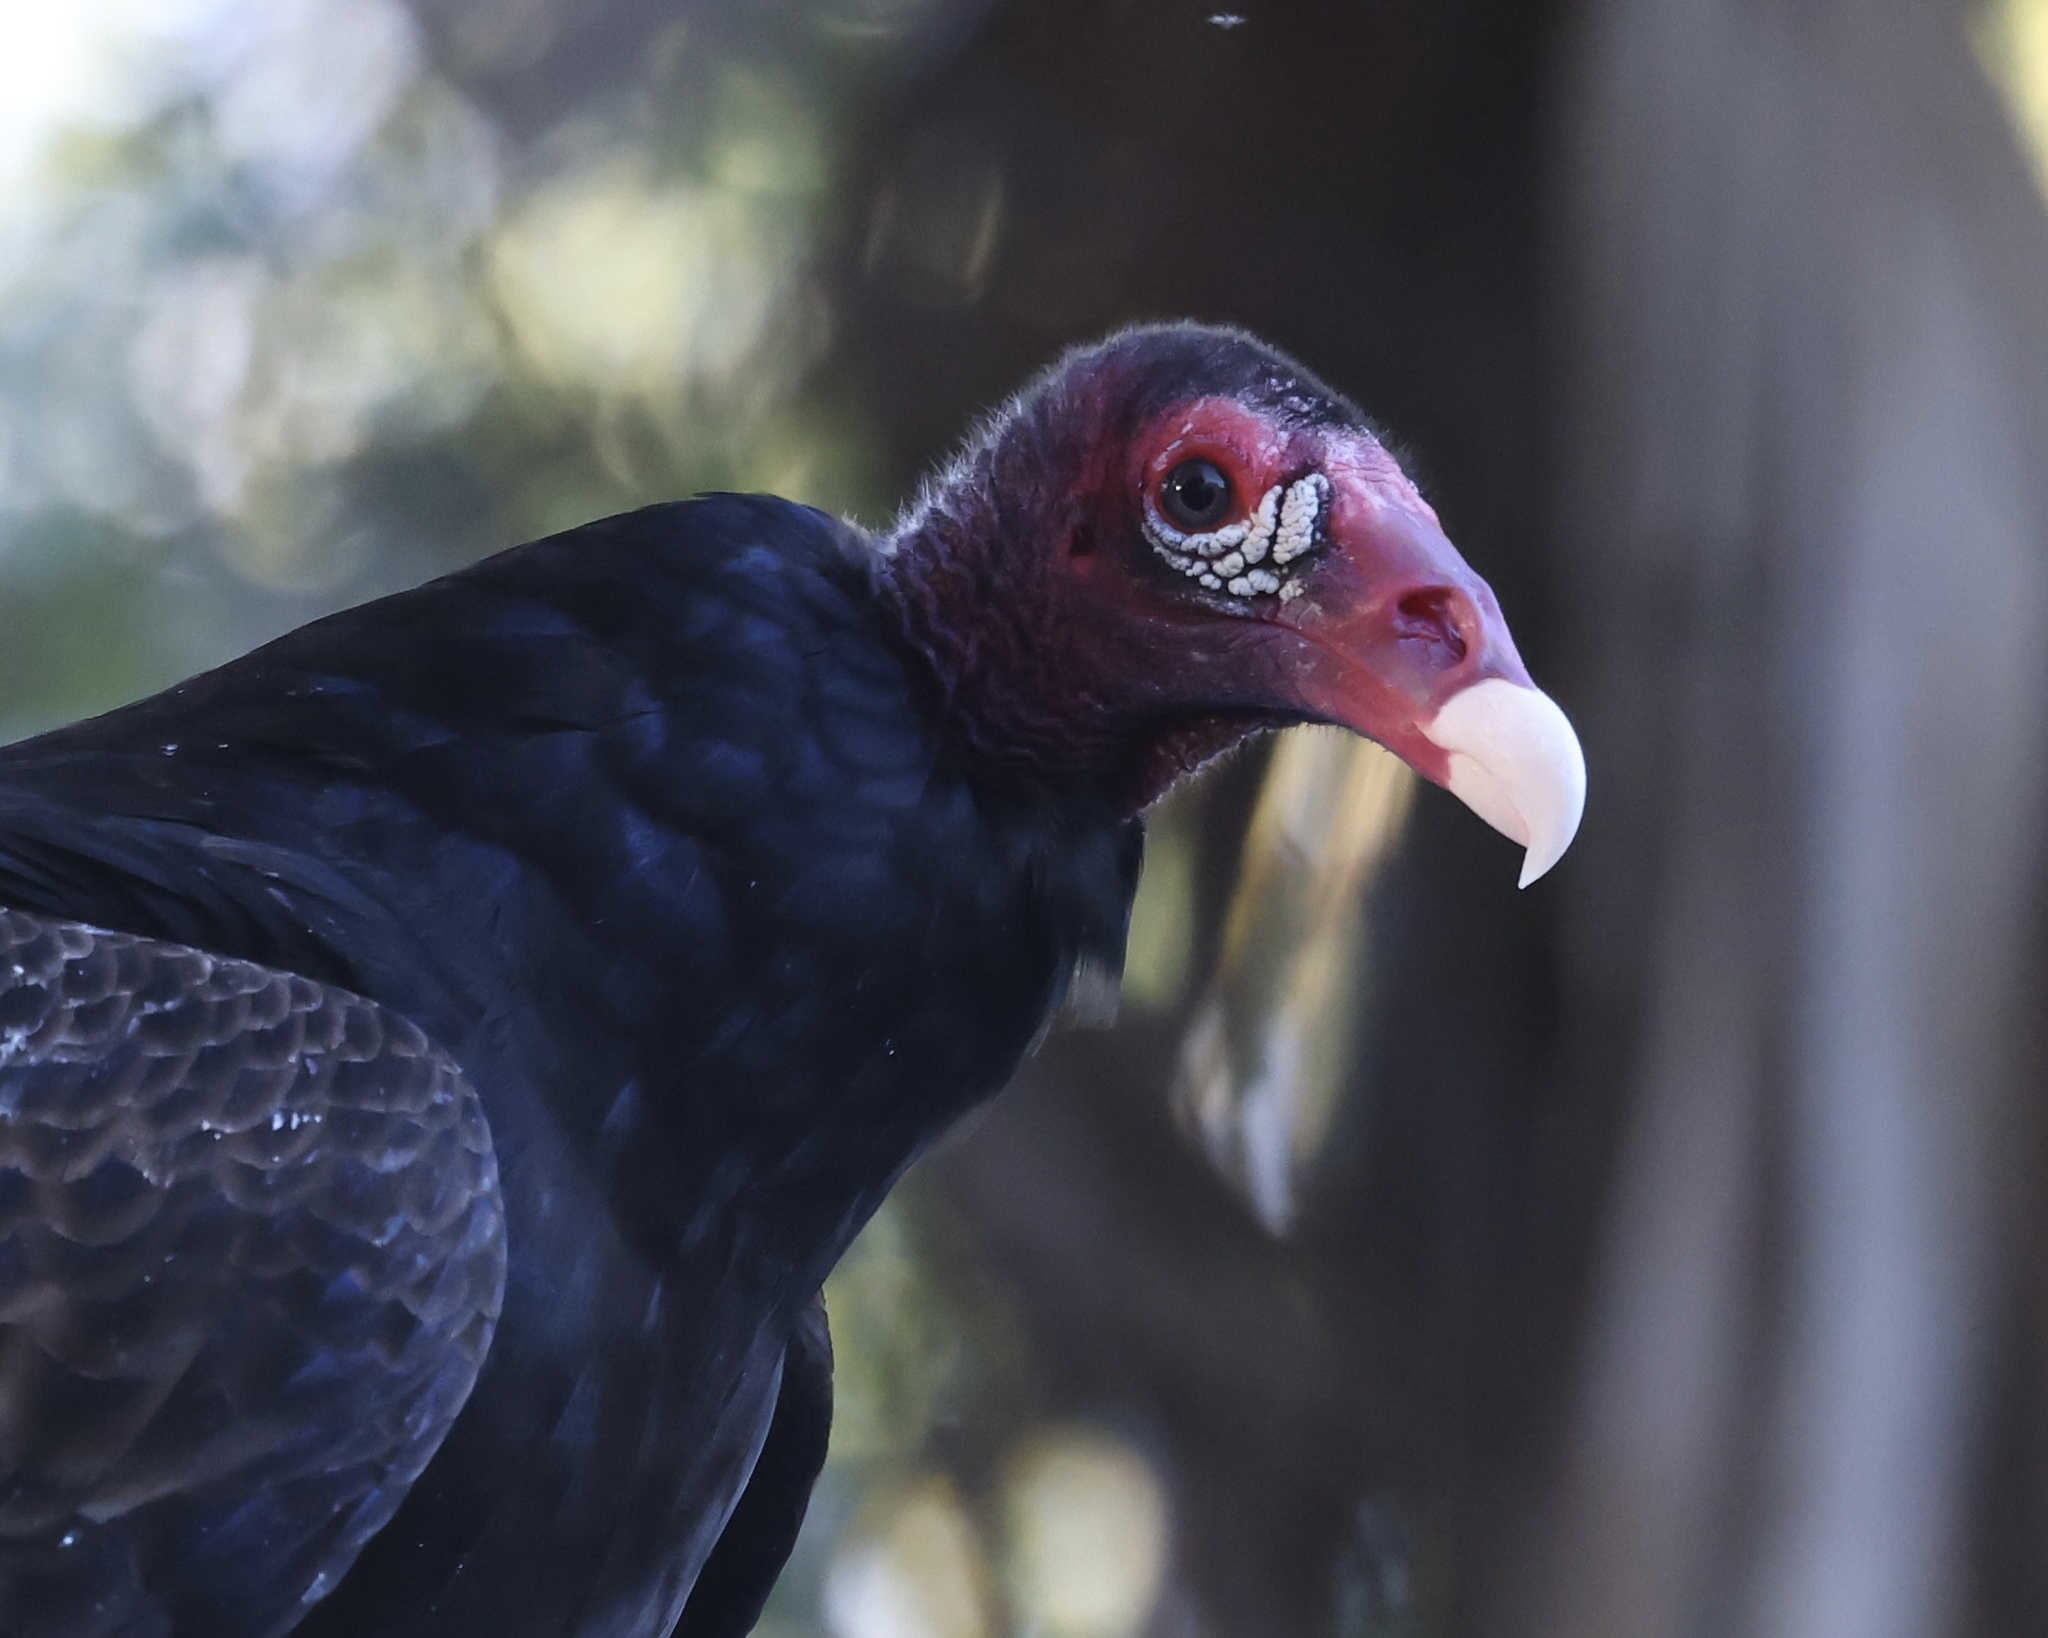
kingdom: Animalia
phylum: Chordata
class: Aves
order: Accipitriformes
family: Cathartidae
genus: Cathartes
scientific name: Cathartes aura
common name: Turkey vulture
